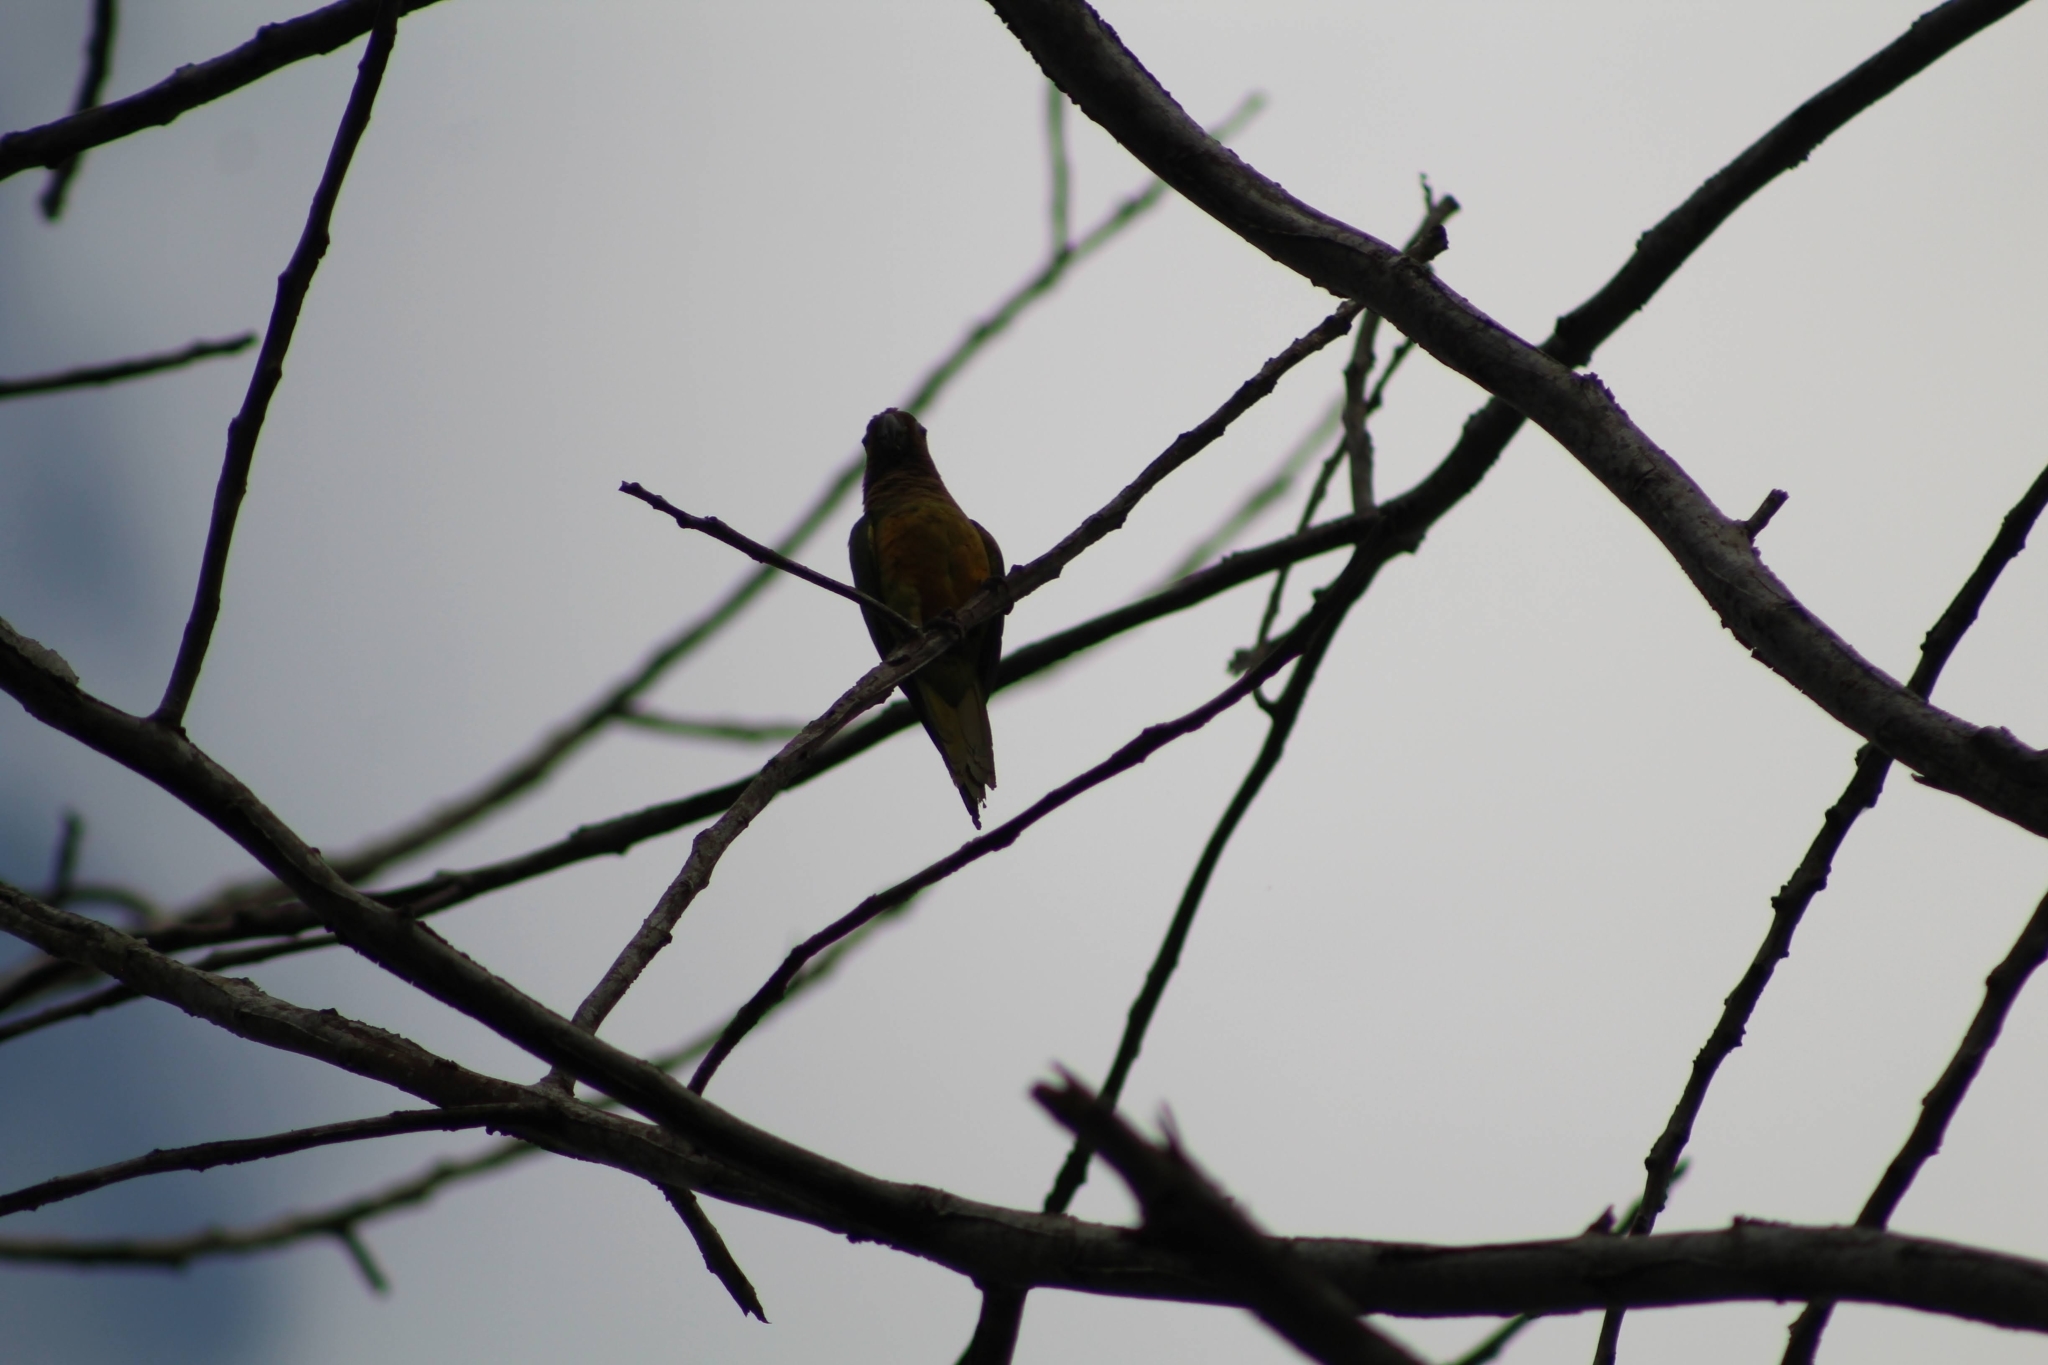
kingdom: Animalia
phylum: Chordata
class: Aves
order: Psittaciformes
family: Psittacidae
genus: Aratinga
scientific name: Aratinga pertinax
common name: Brown-throated parakeet
